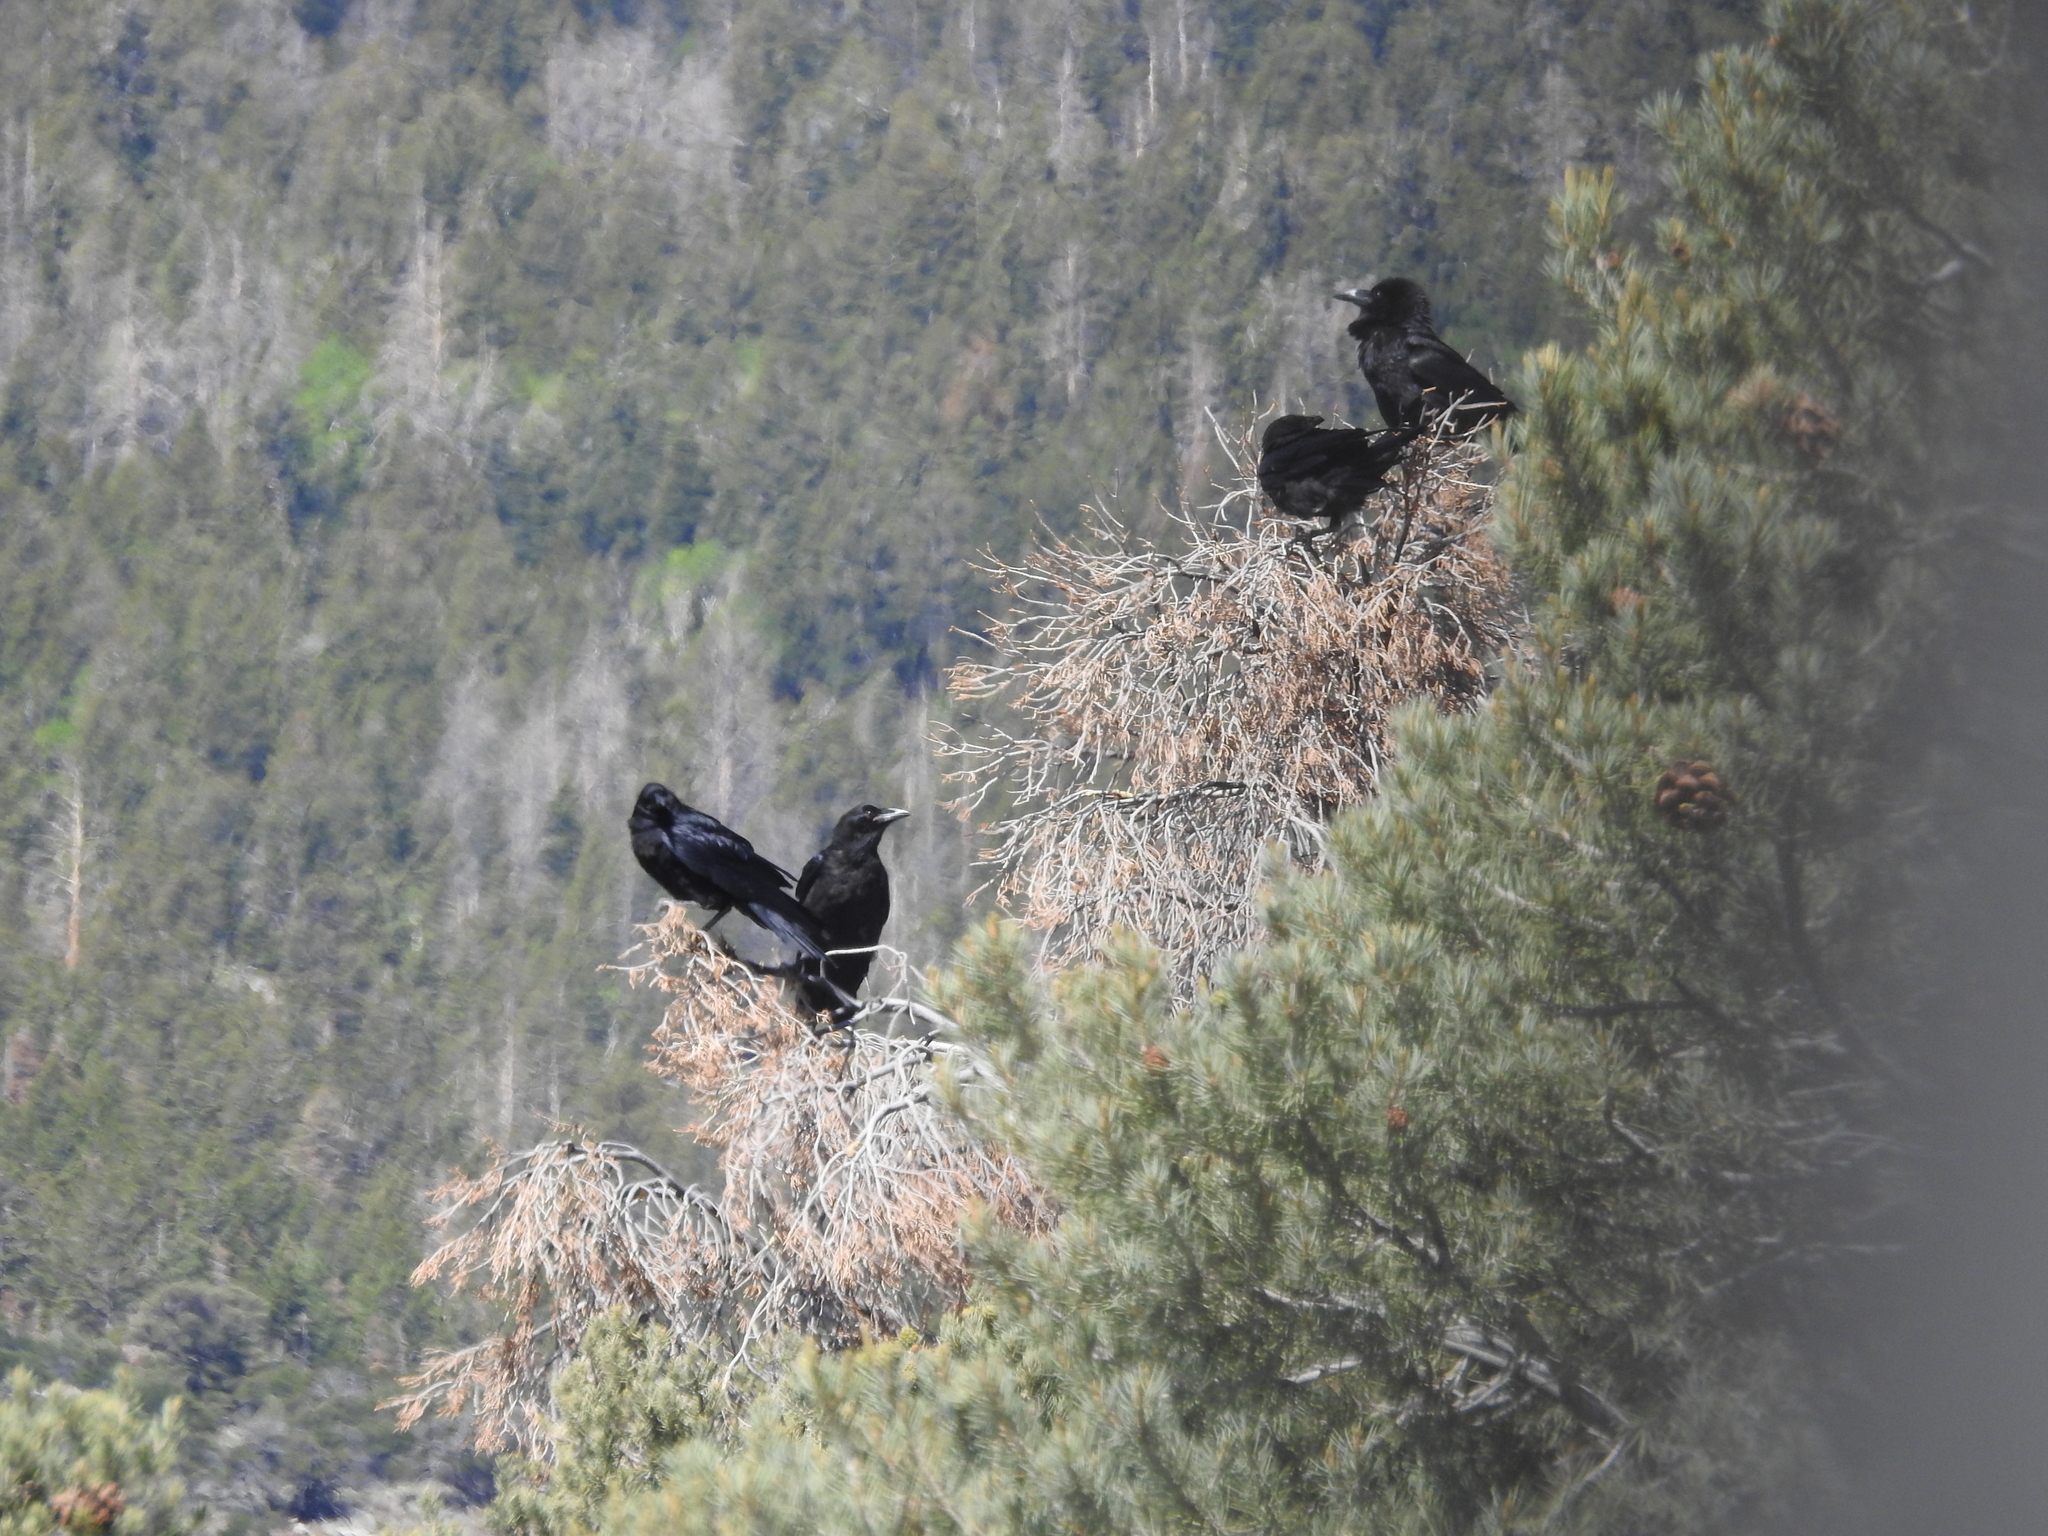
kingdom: Animalia
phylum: Chordata
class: Aves
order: Passeriformes
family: Corvidae
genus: Corvus
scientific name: Corvus corax
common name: Common raven
